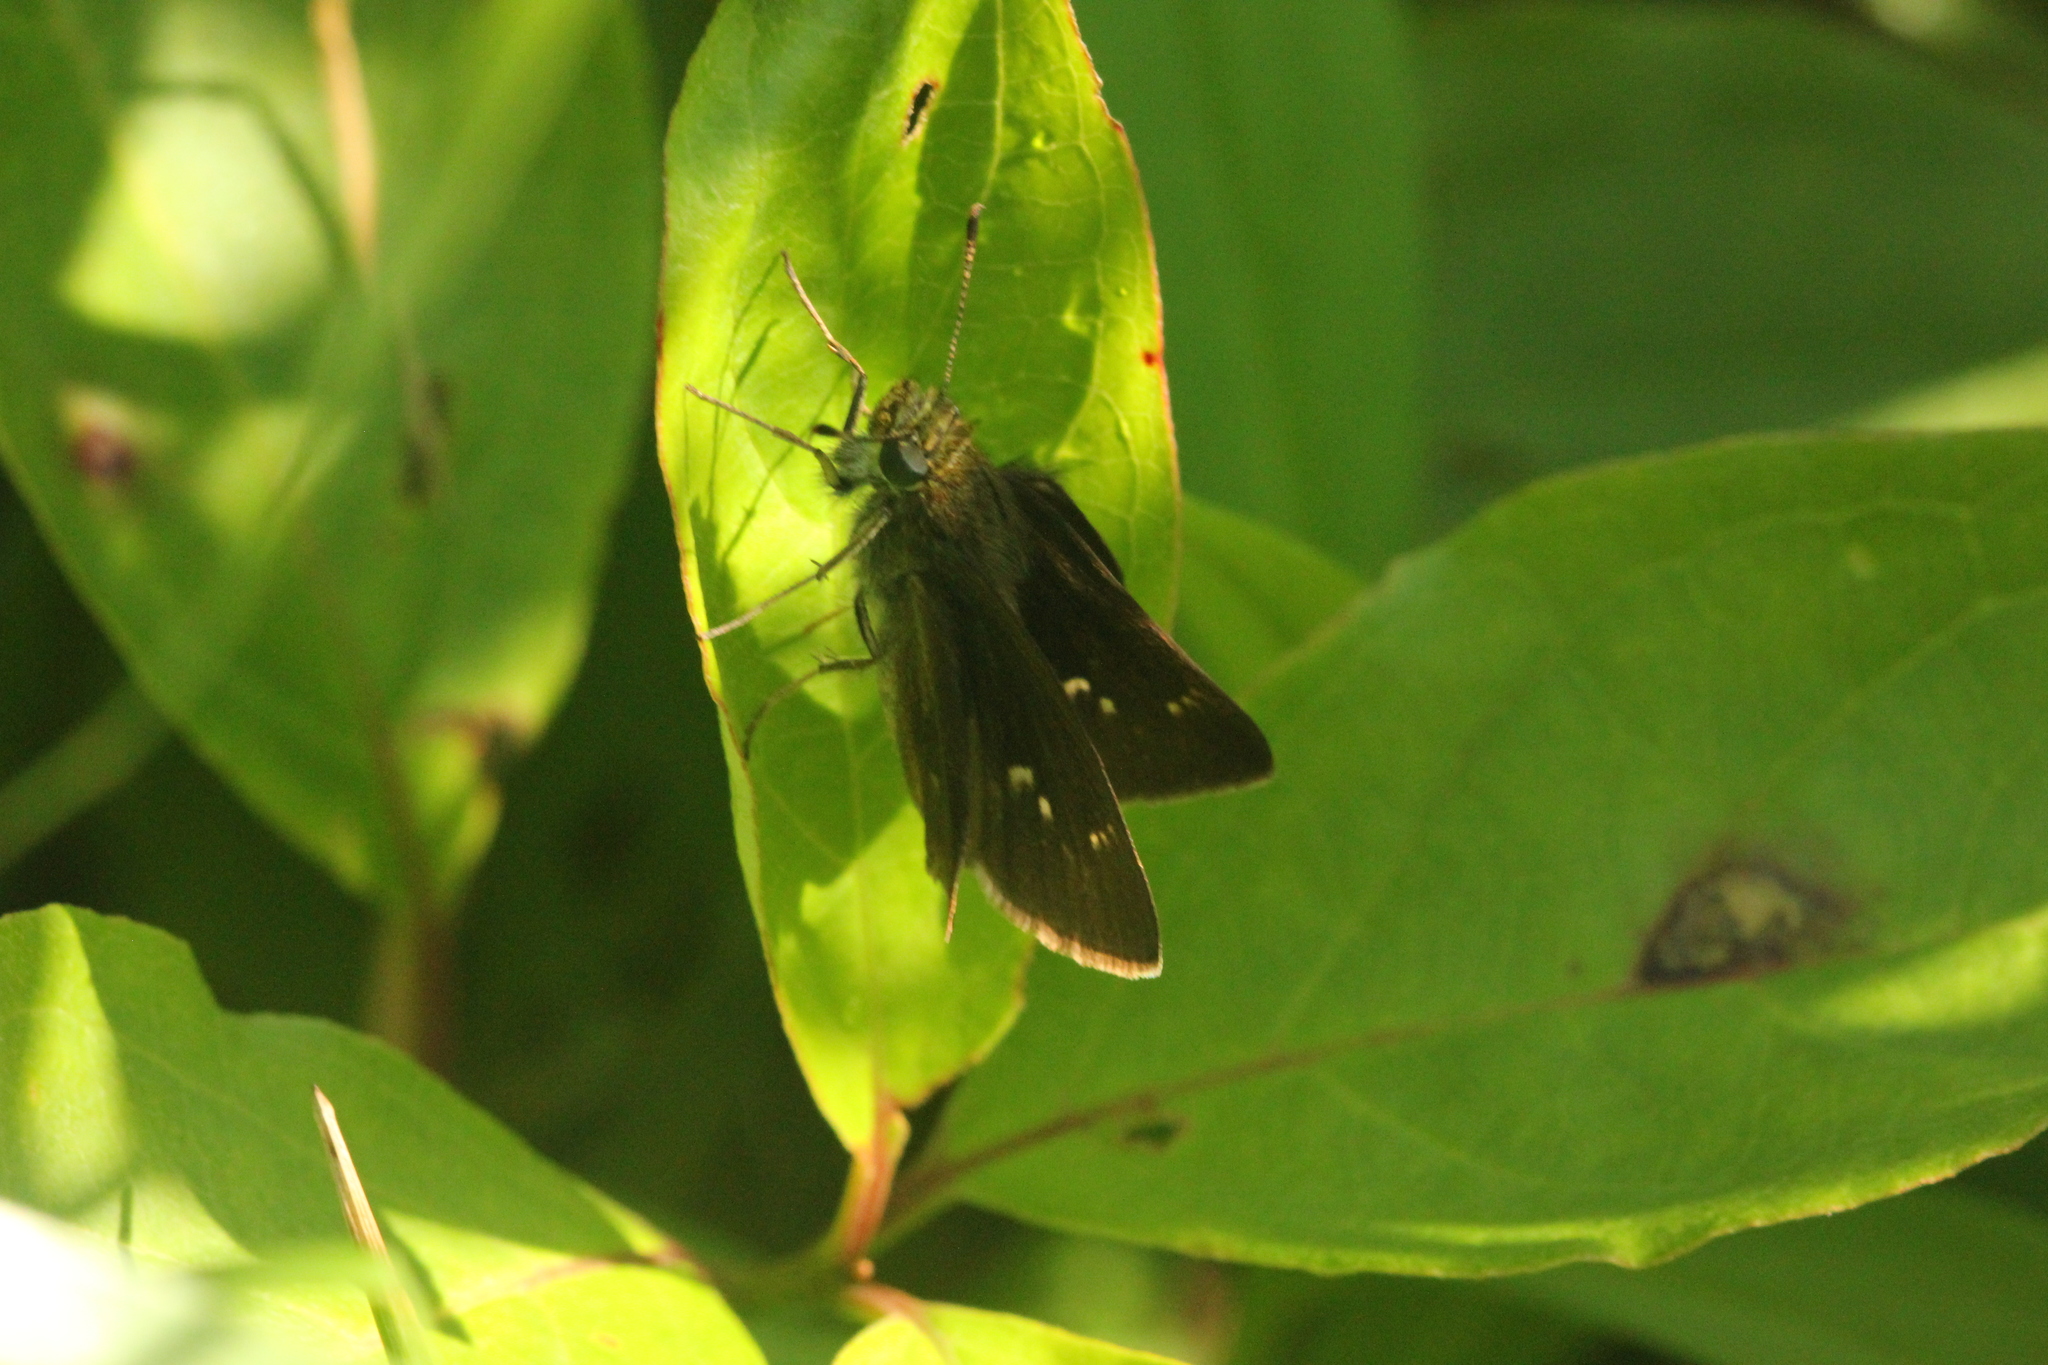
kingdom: Animalia
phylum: Arthropoda
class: Insecta
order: Lepidoptera
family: Hesperiidae
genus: Euphyes
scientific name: Euphyes vestris
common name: Dun skipper
